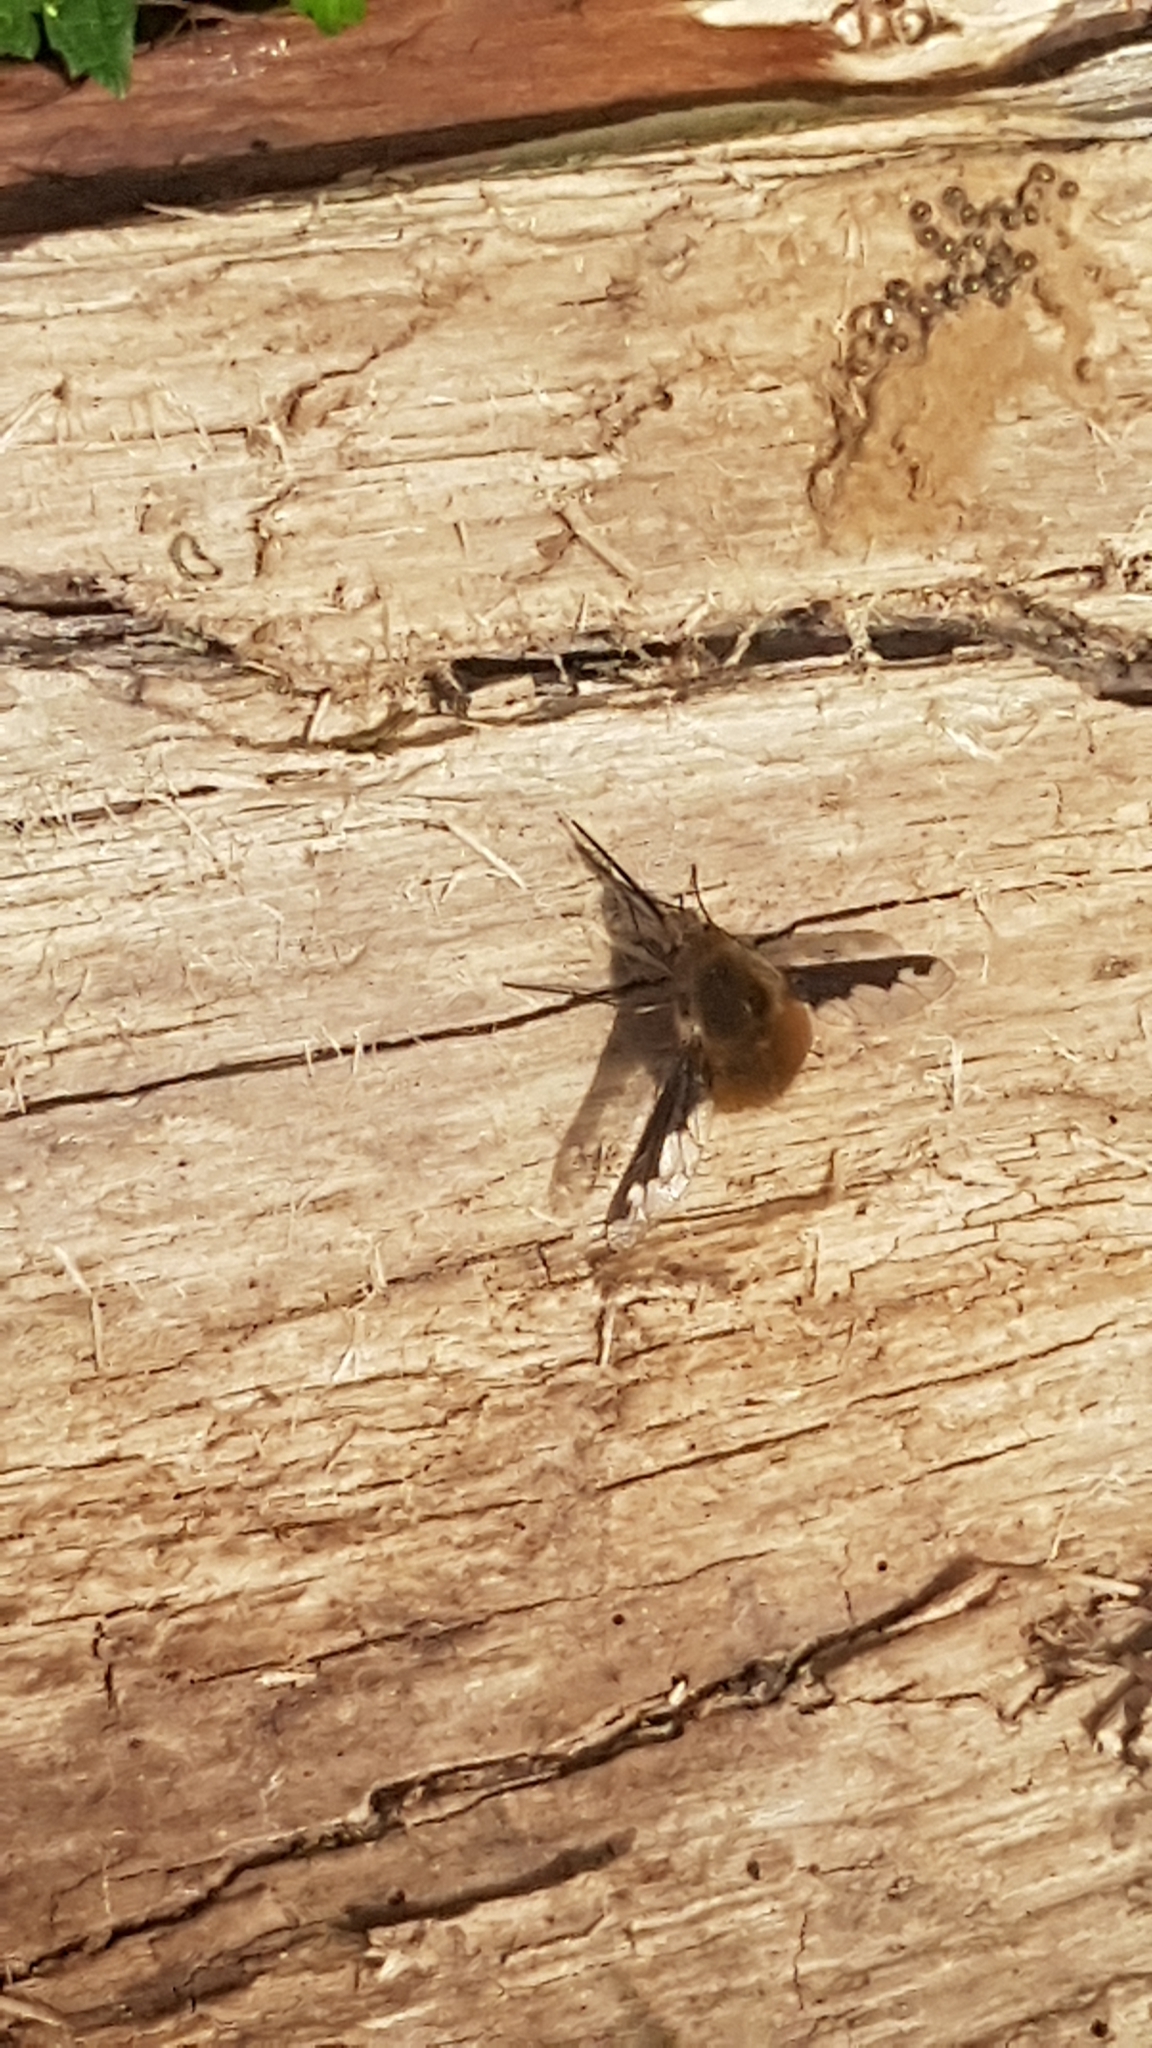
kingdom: Animalia
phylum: Arthropoda
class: Insecta
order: Diptera
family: Bombyliidae
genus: Bombylius
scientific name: Bombylius major
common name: Bee fly
